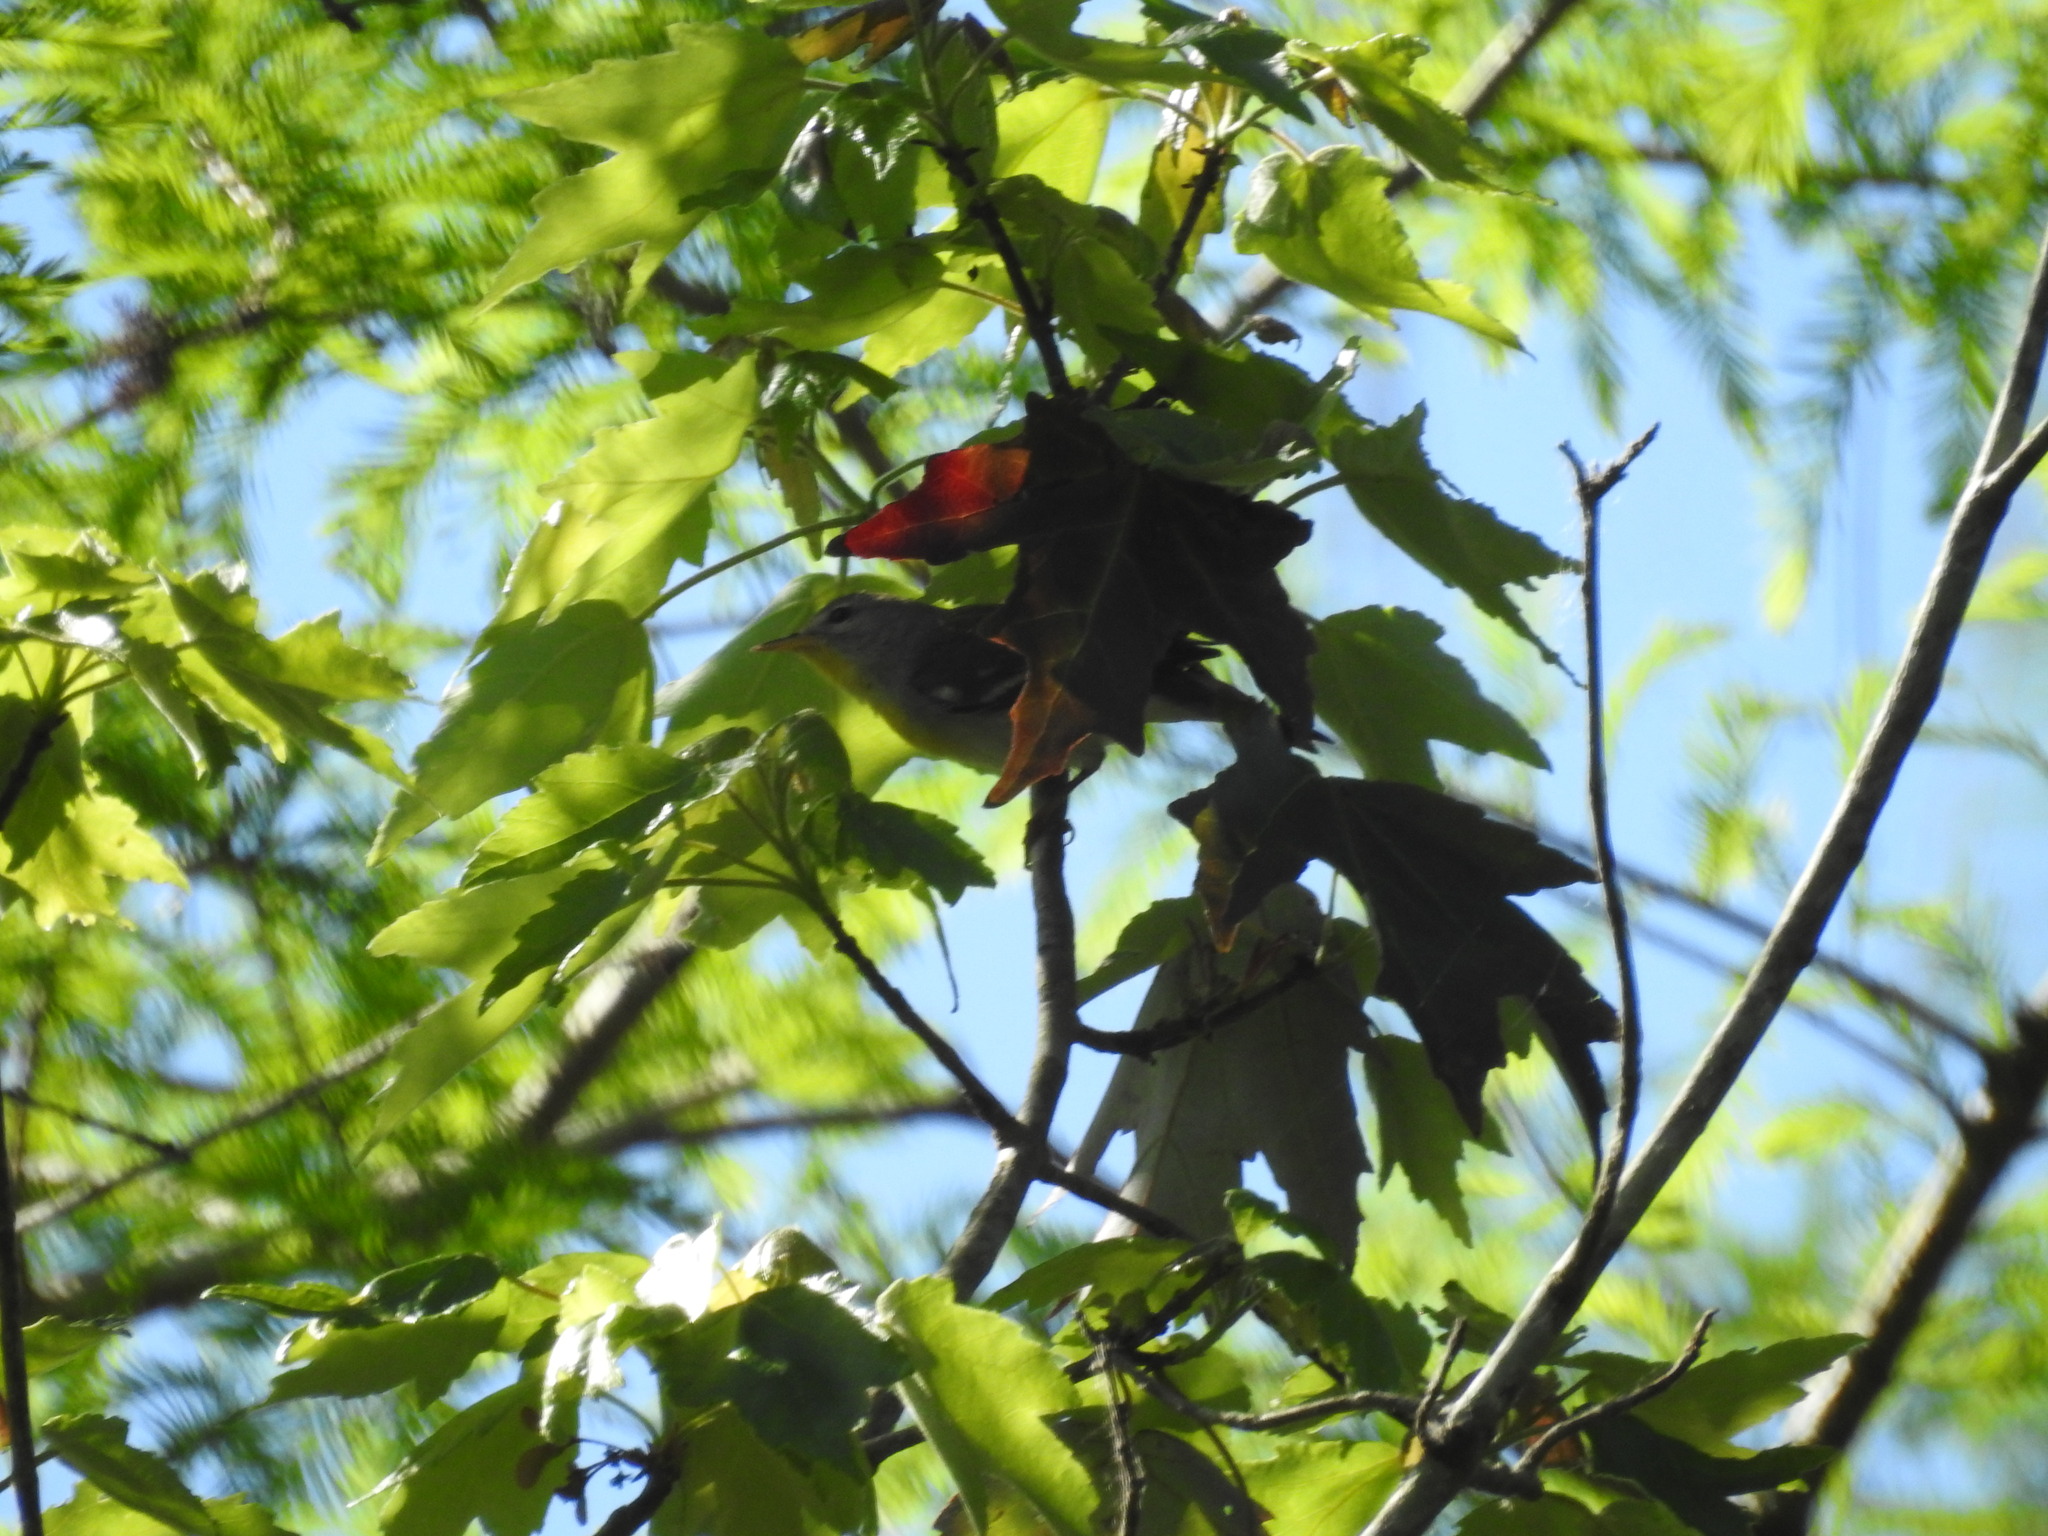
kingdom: Animalia
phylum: Chordata
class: Aves
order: Passeriformes
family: Parulidae
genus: Setophaga
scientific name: Setophaga americana
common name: Northern parula
